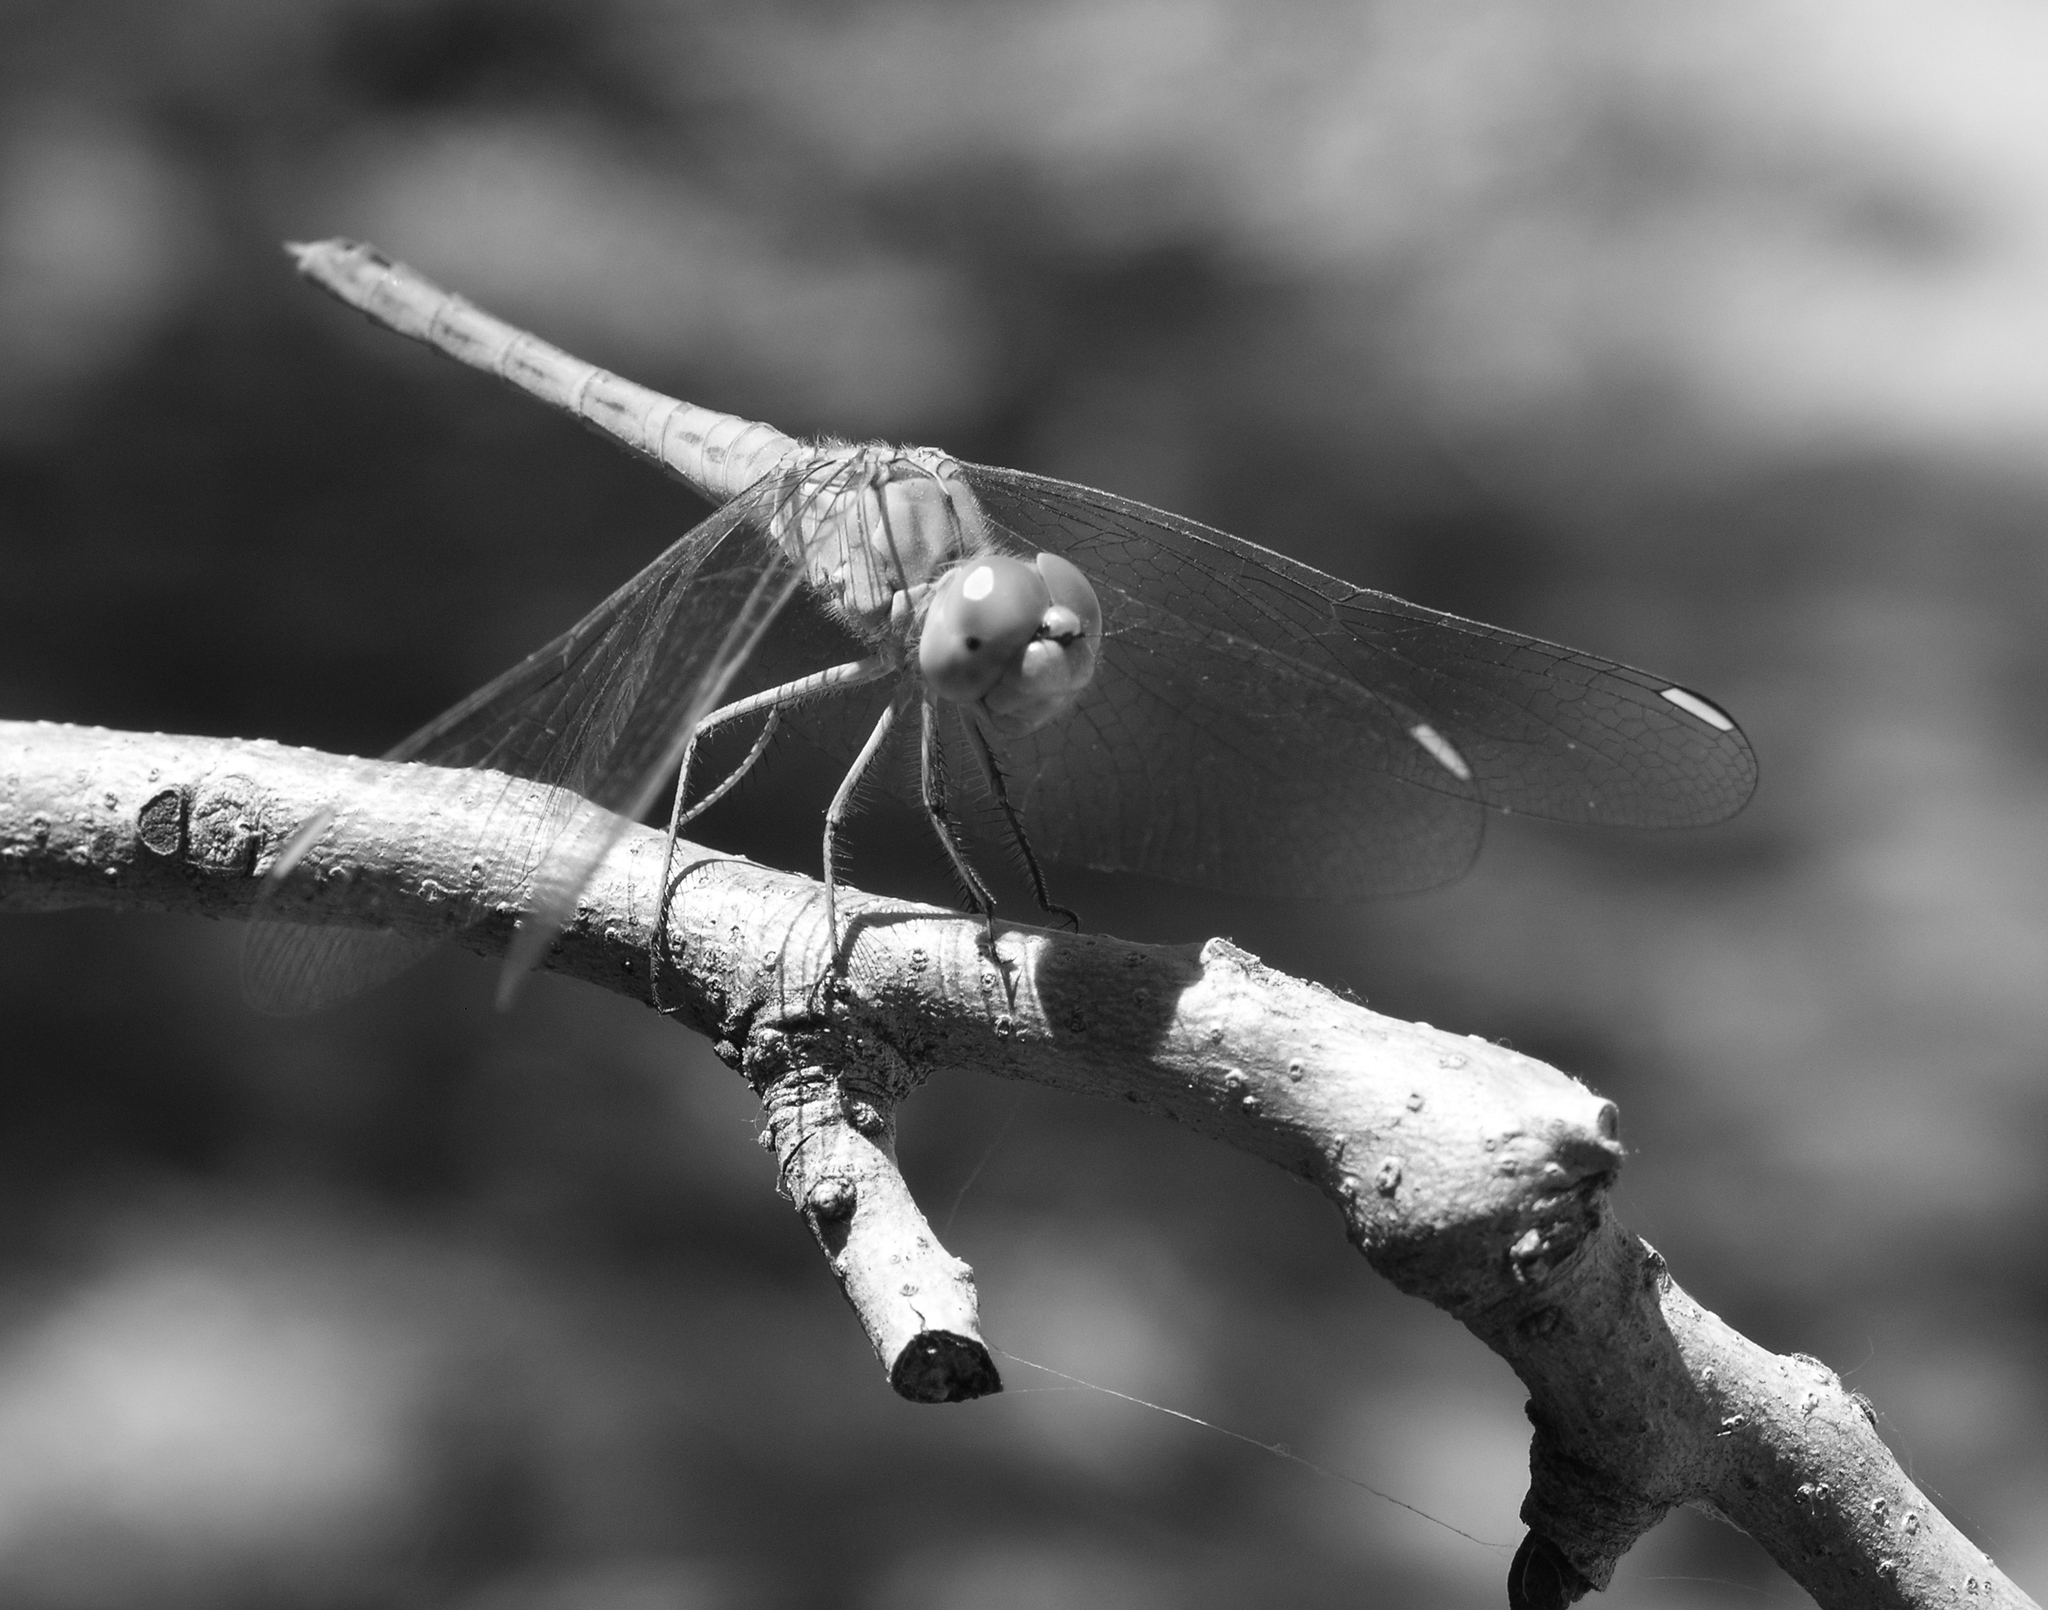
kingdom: Animalia
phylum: Arthropoda
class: Insecta
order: Odonata
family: Libellulidae
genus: Sympetrum
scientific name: Sympetrum arenicolor
